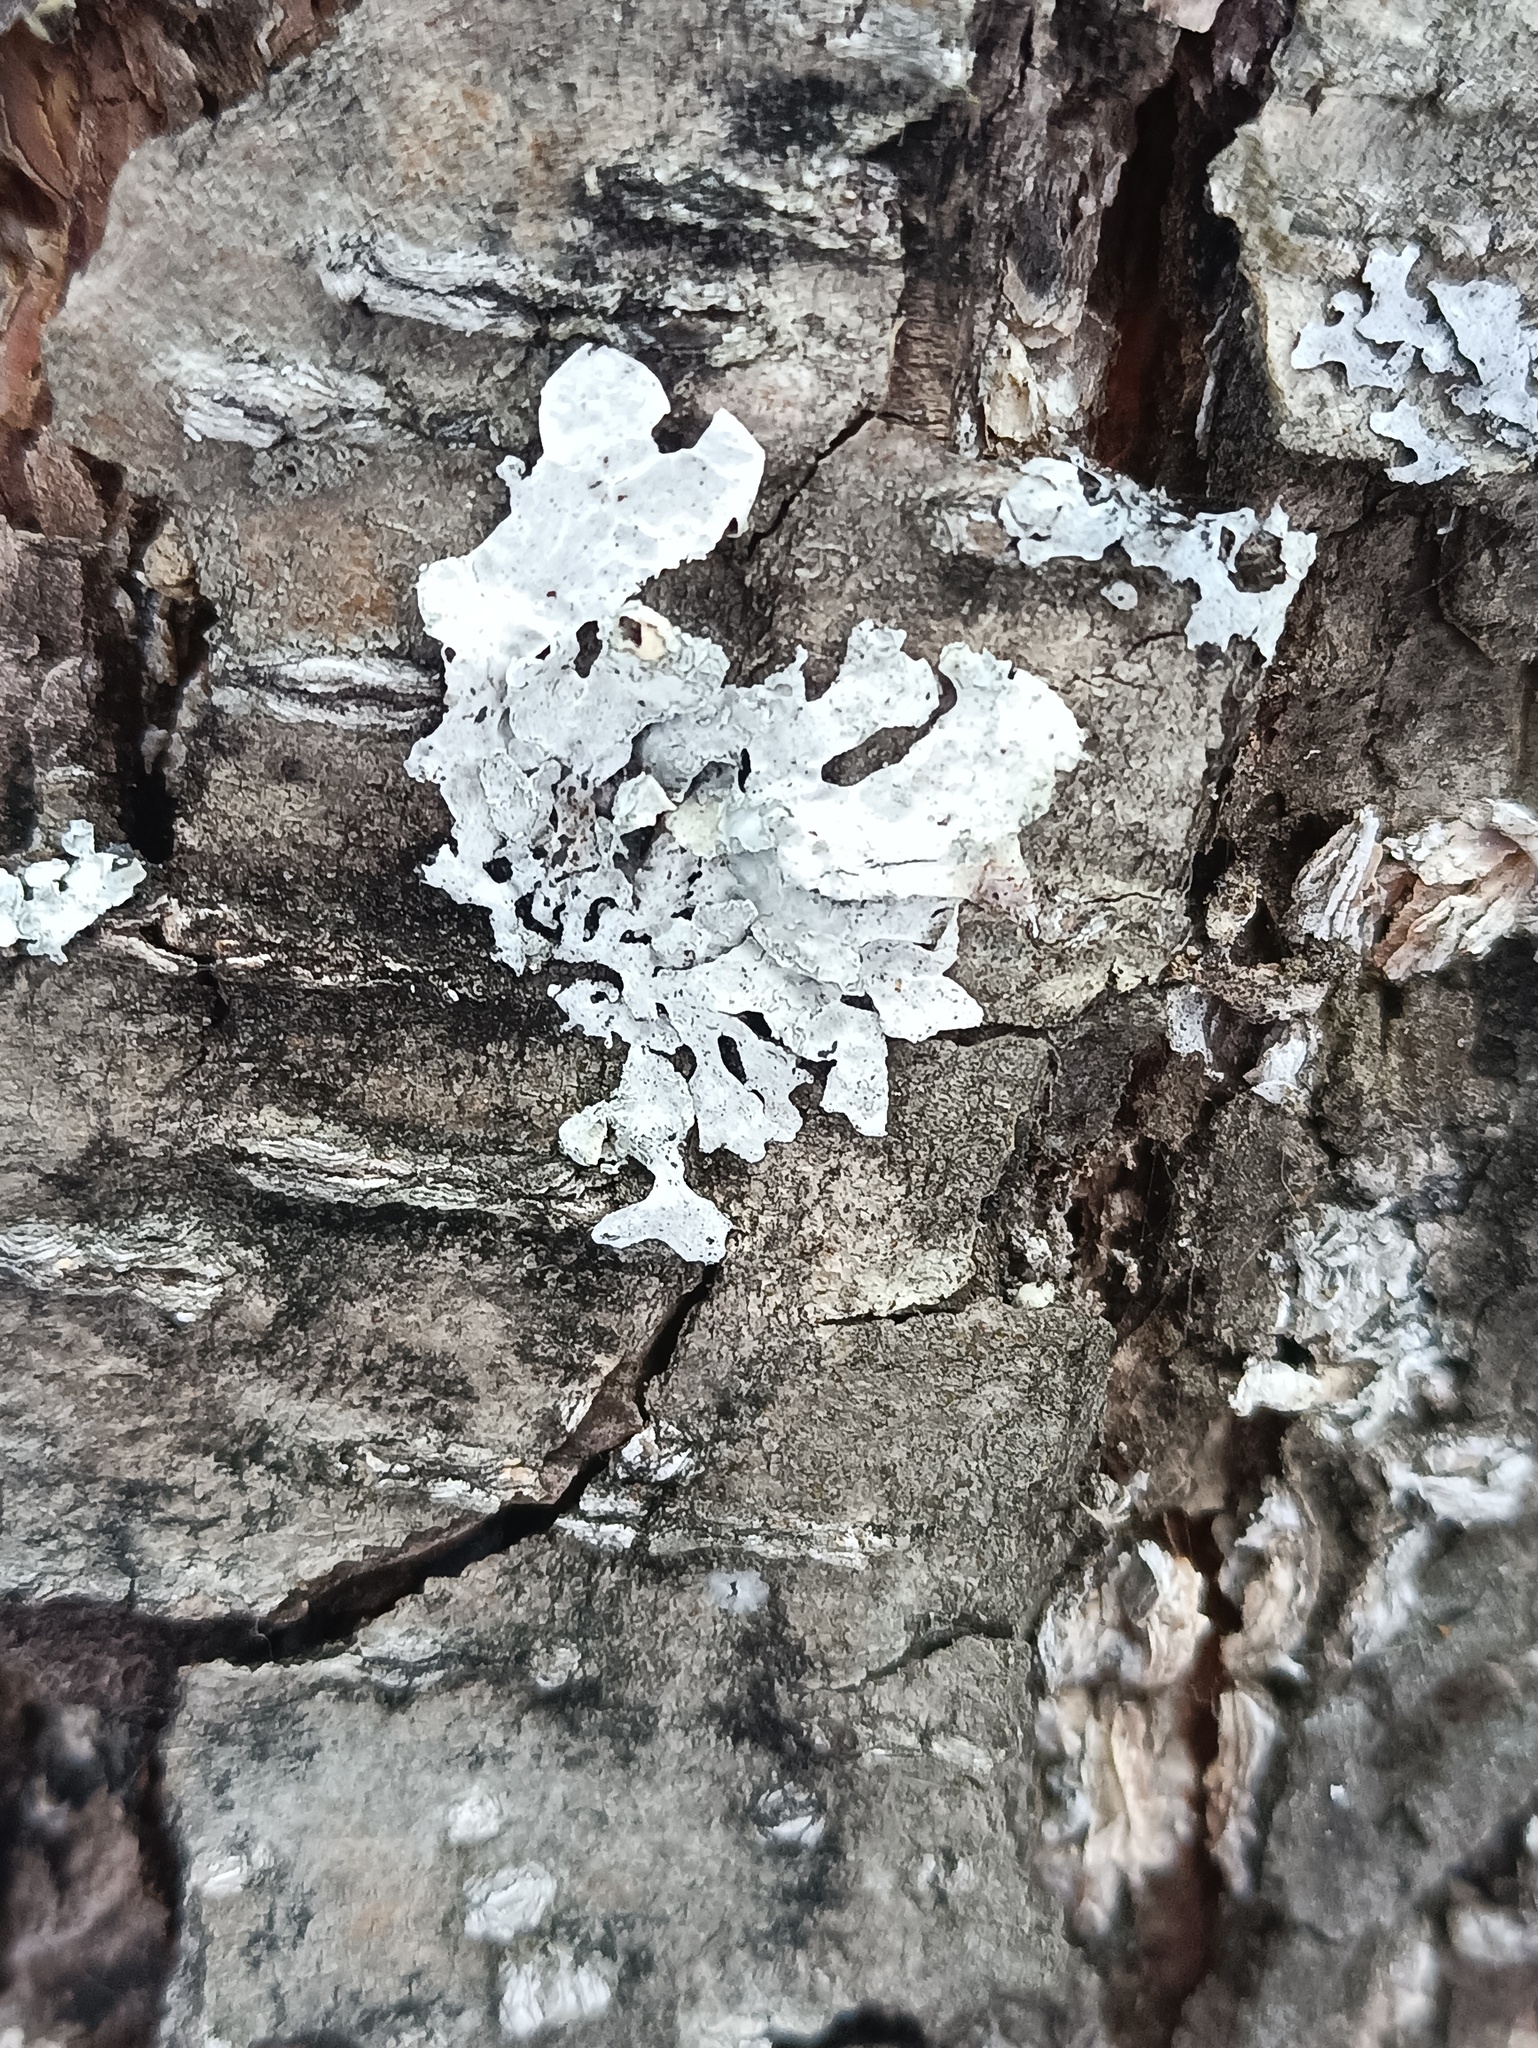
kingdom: Fungi
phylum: Ascomycota
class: Lecanoromycetes
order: Lecanorales
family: Parmeliaceae
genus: Parmelia
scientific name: Parmelia sulcata
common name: Netted shield lichen
